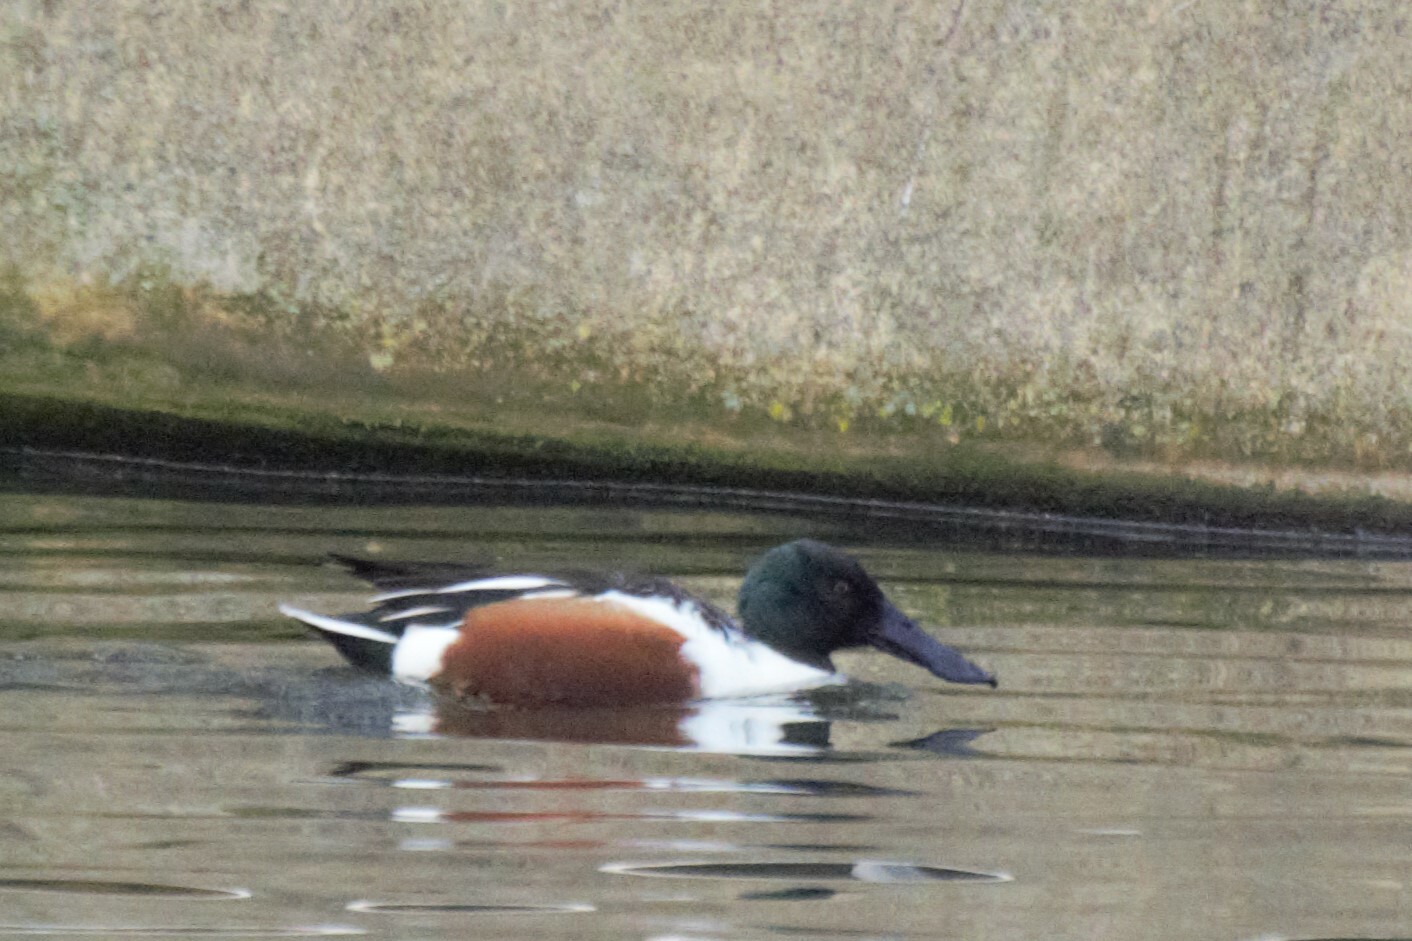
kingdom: Animalia
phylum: Chordata
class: Aves
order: Anseriformes
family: Anatidae
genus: Spatula
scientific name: Spatula clypeata
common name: Northern shoveler
